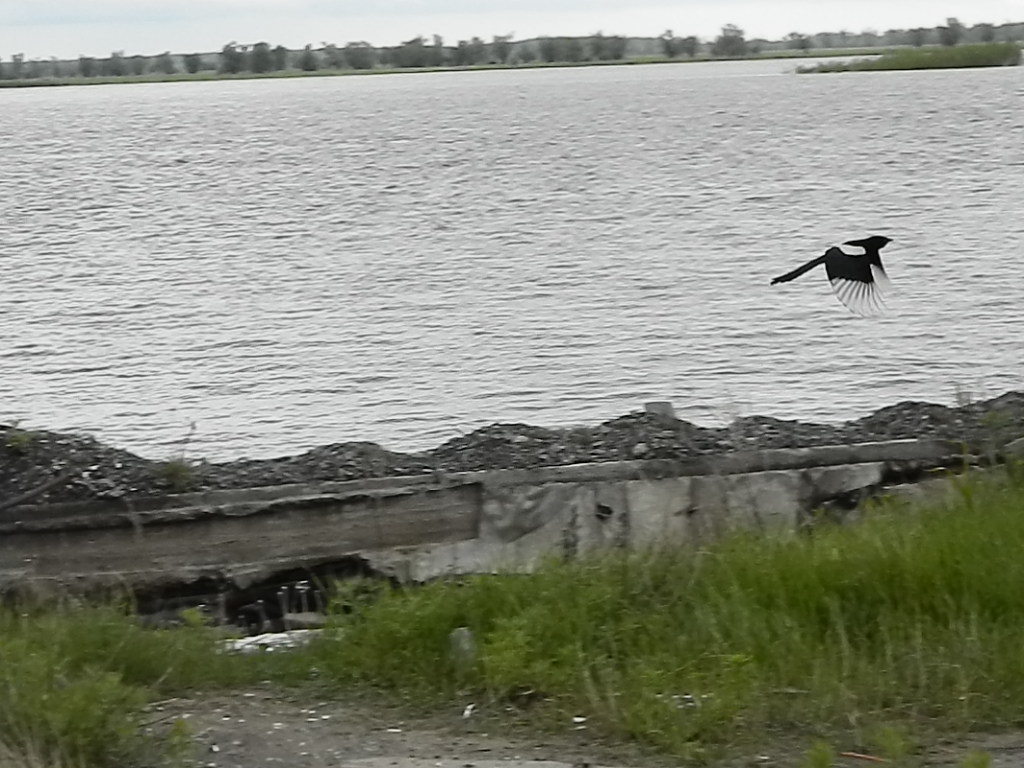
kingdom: Animalia
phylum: Chordata
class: Aves
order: Passeriformes
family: Corvidae
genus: Pica
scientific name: Pica pica
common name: Eurasian magpie
